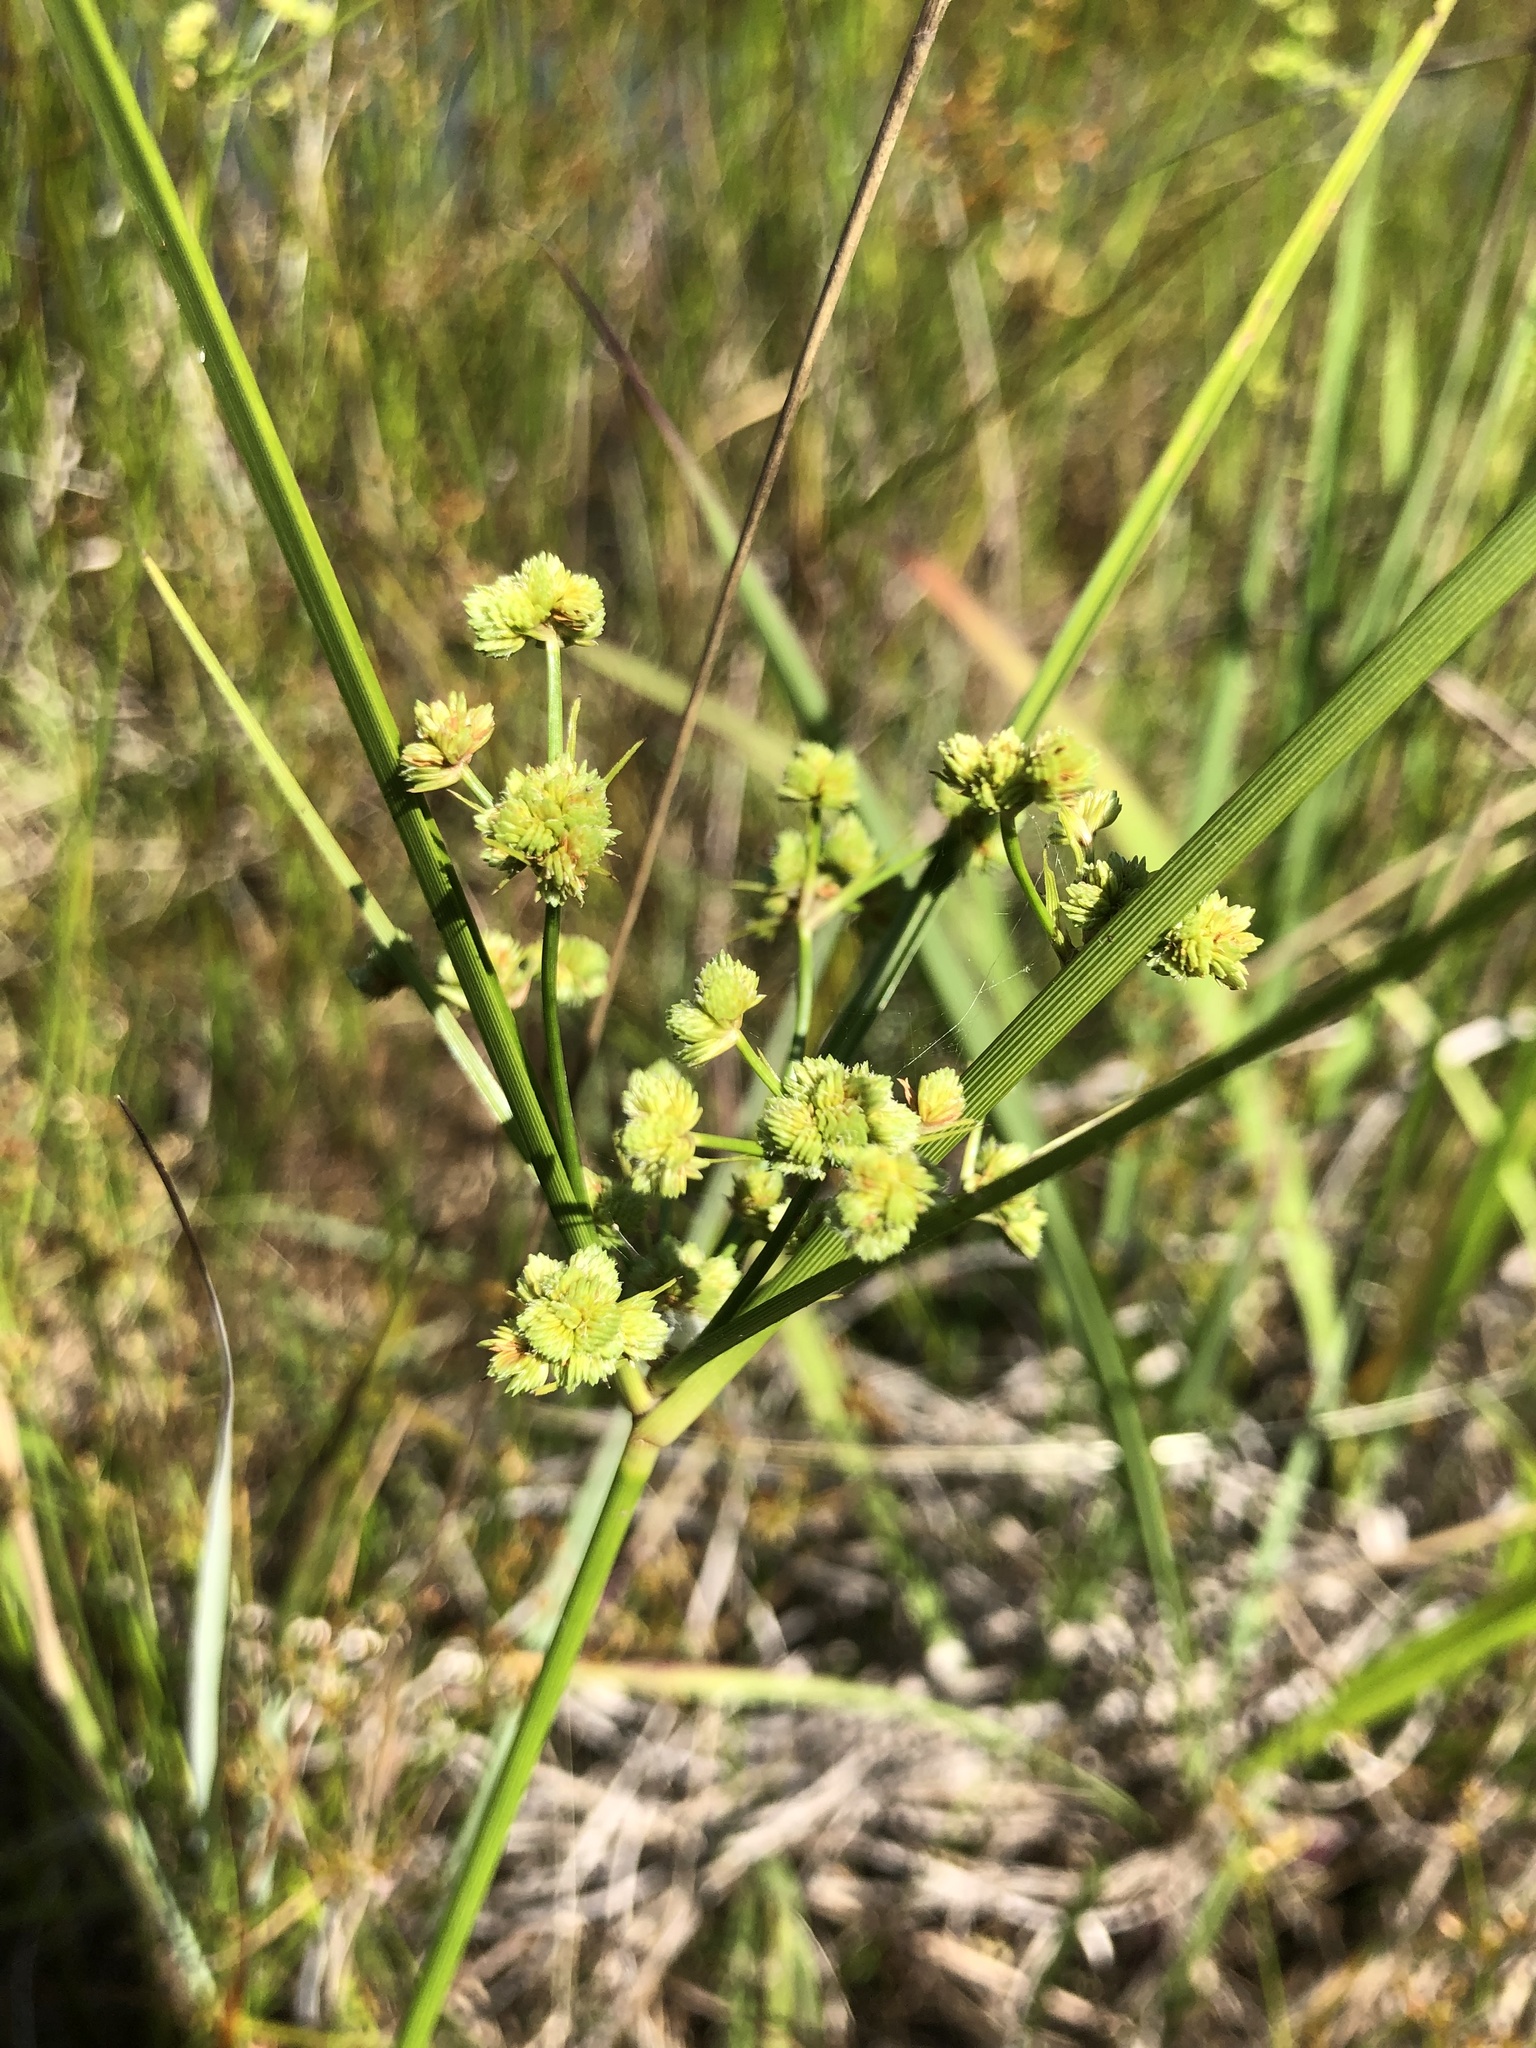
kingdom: Plantae
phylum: Tracheophyta
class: Liliopsida
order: Poales
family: Cyperaceae
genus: Cyperus
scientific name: Cyperus pseudovegetus
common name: Marsh flat sedge
